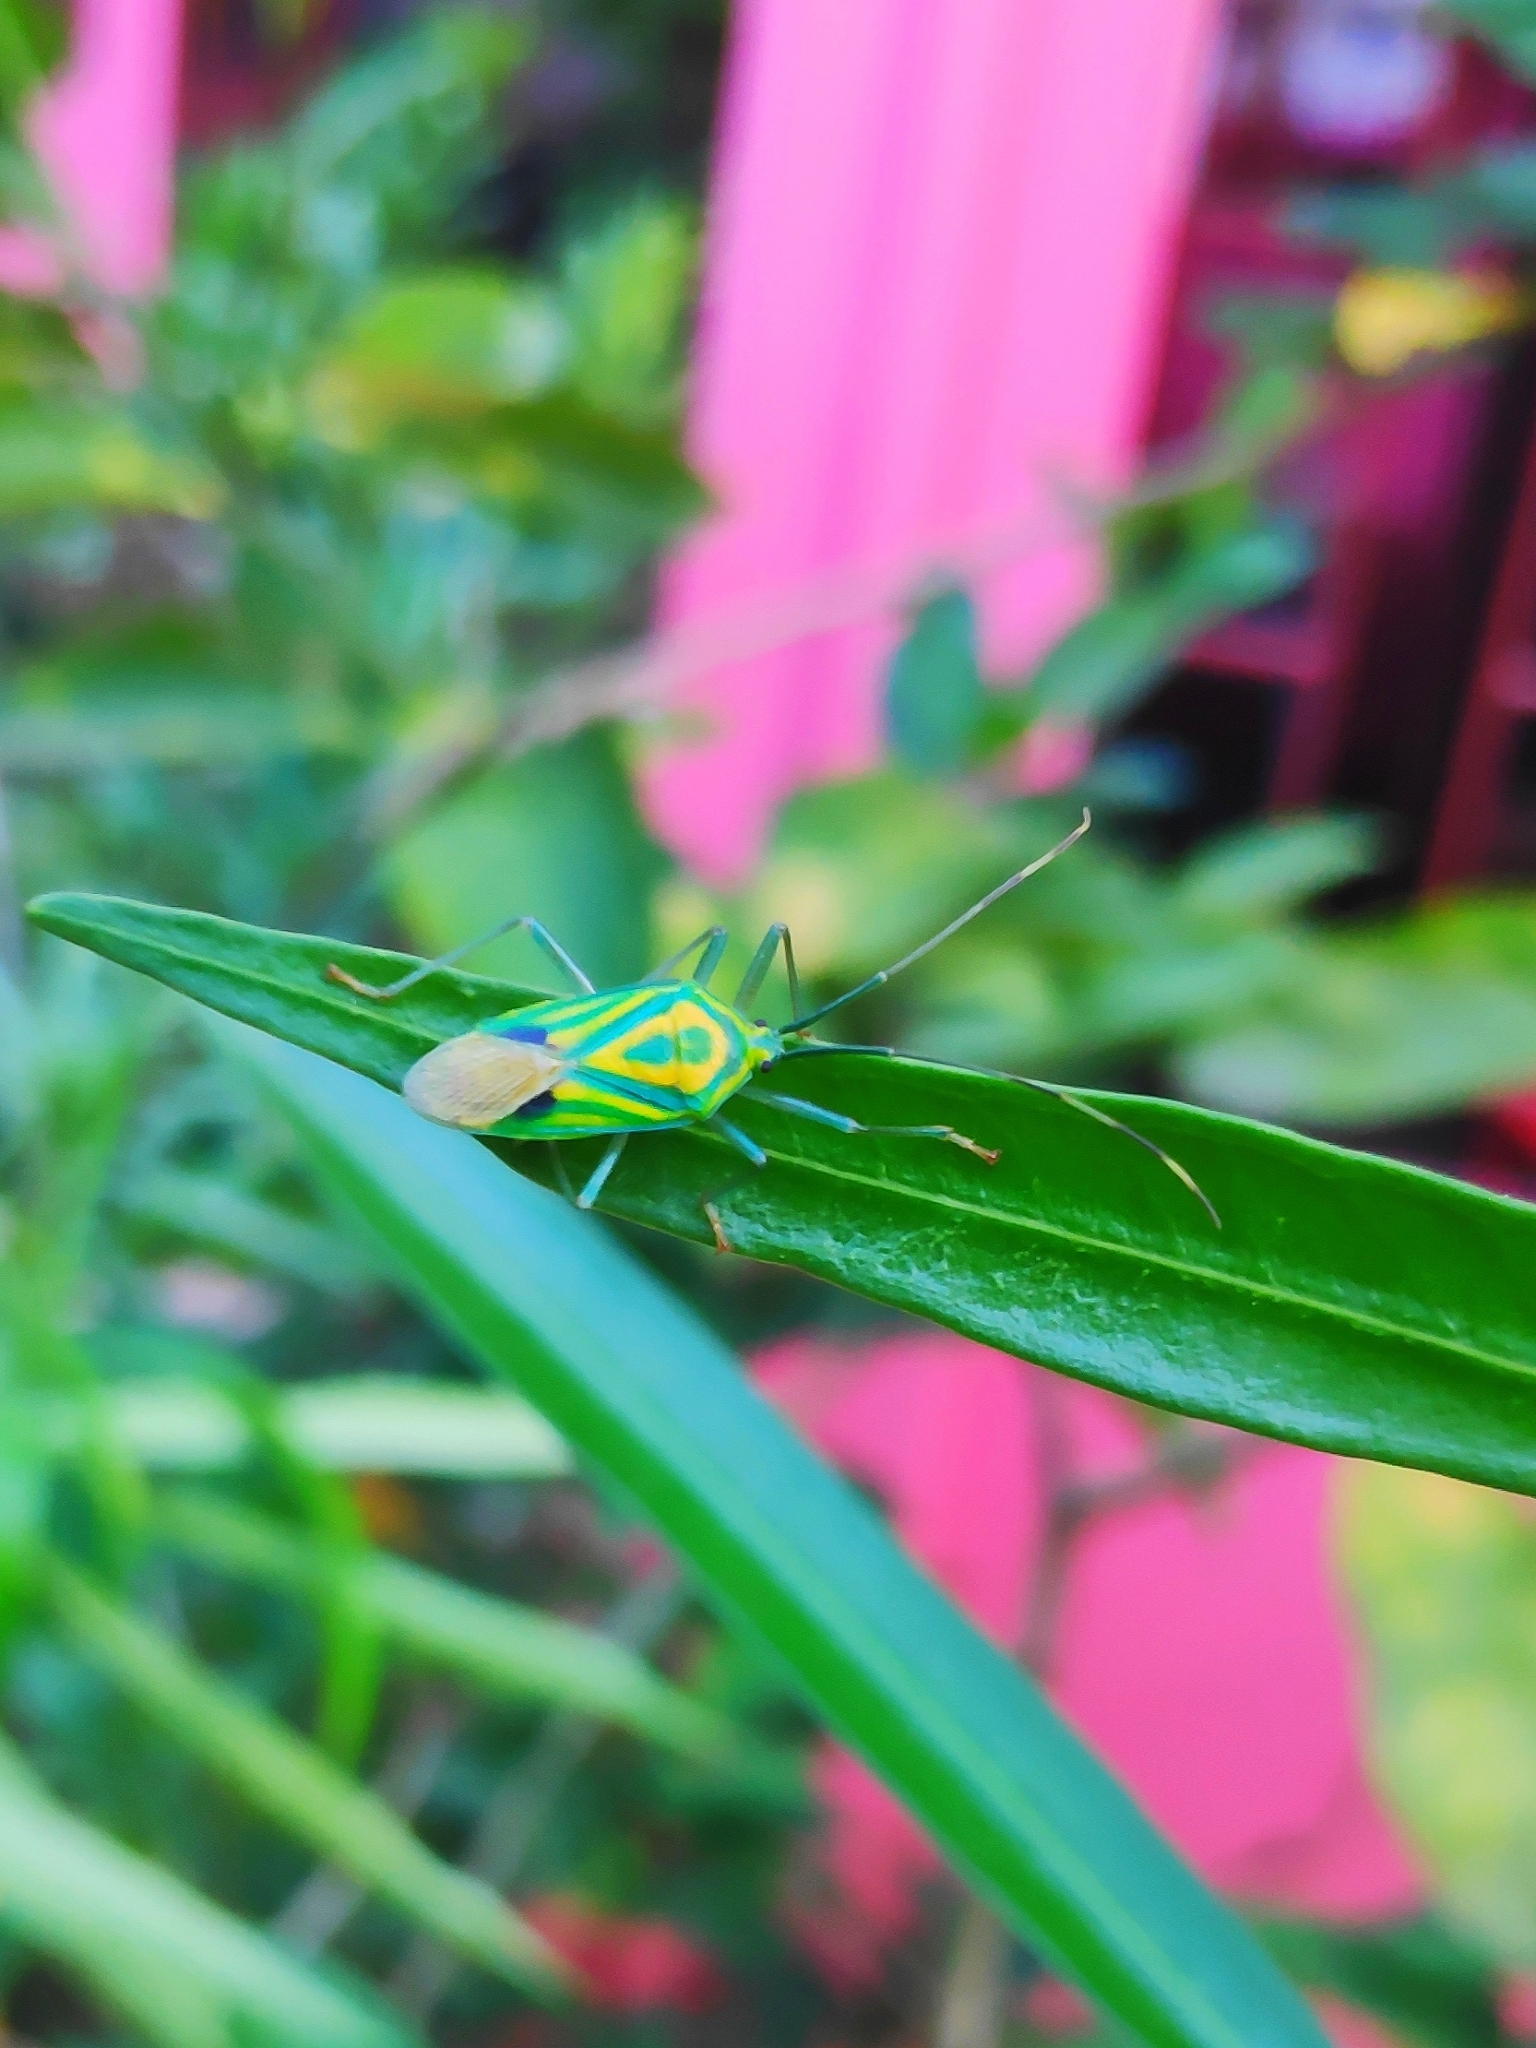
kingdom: Animalia
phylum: Arthropoda
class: Insecta
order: Hemiptera
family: Urostylididae
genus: Urolabida
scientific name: Urolabida
